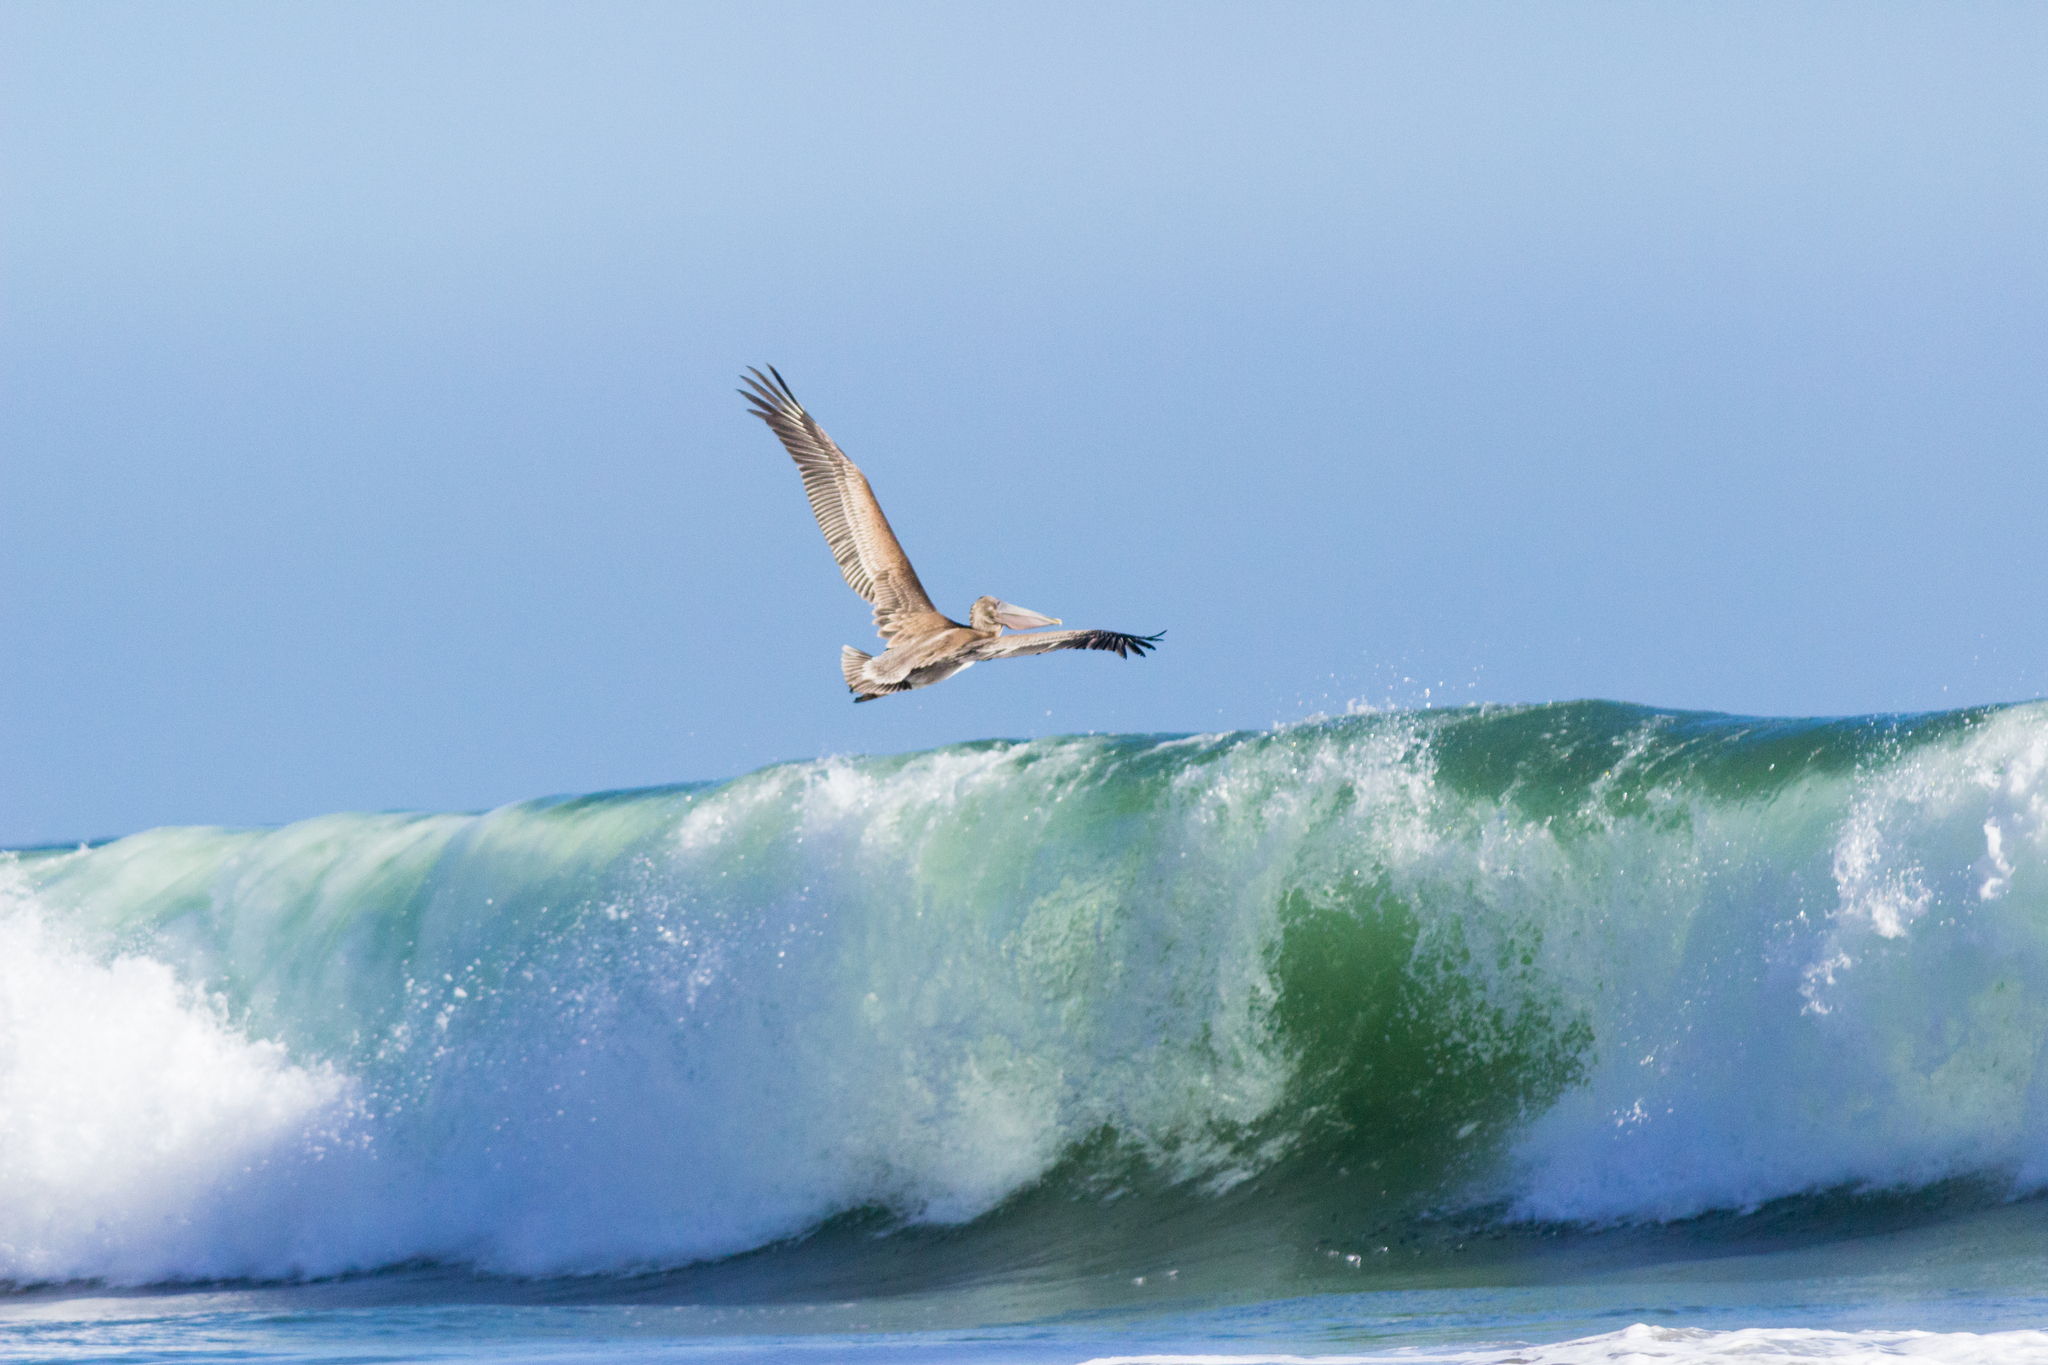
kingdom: Animalia
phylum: Chordata
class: Aves
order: Pelecaniformes
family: Pelecanidae
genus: Pelecanus
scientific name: Pelecanus occidentalis
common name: Brown pelican
